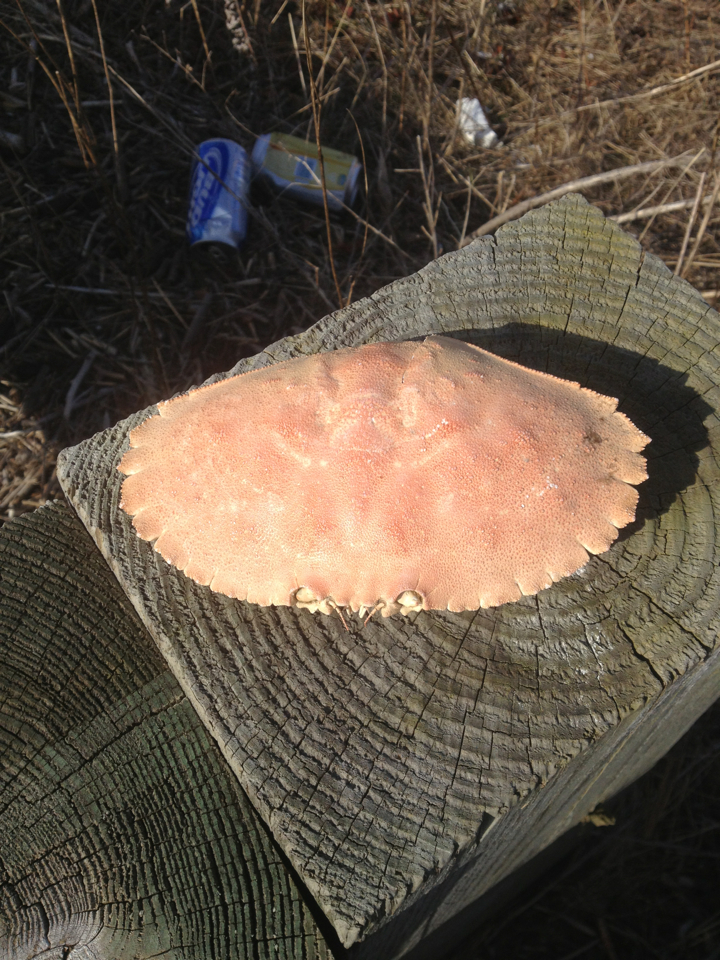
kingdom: Animalia
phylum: Arthropoda
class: Malacostraca
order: Decapoda
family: Cancridae
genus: Cancer
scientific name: Cancer borealis
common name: Jonah crab
